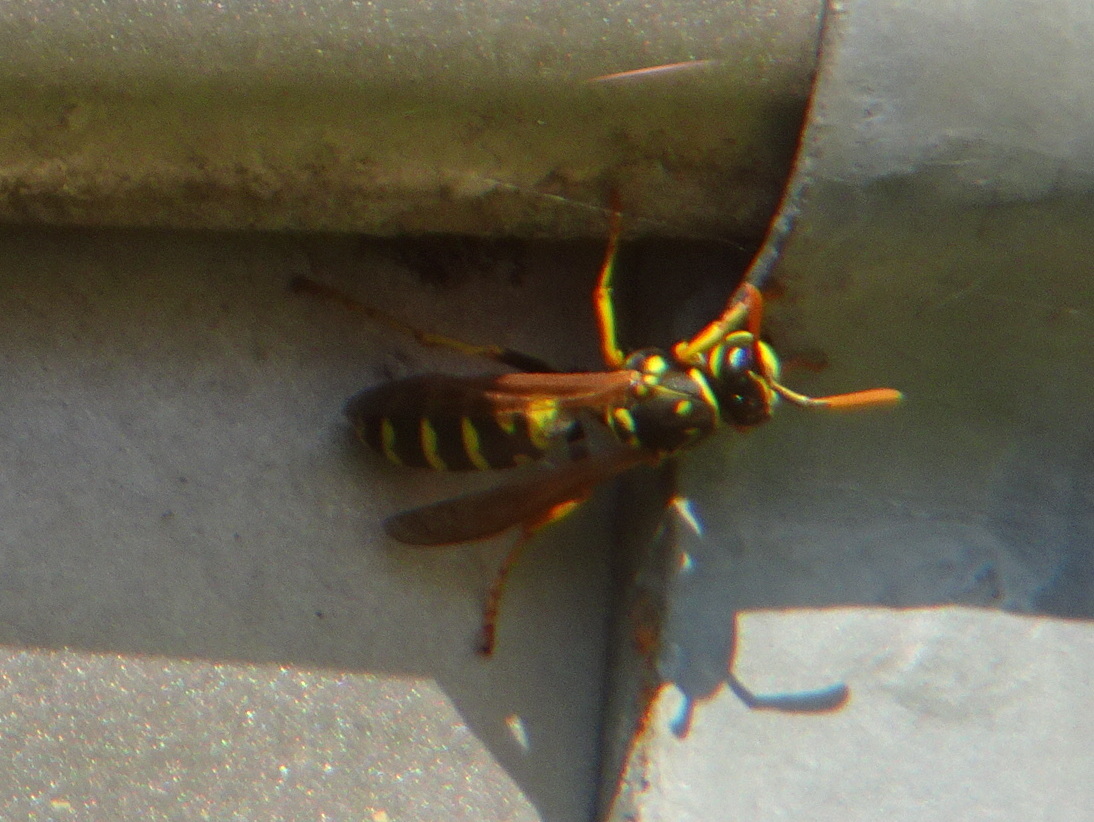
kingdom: Animalia
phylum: Arthropoda
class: Insecta
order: Hymenoptera
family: Eumenidae
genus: Polistes
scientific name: Polistes dominula
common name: Paper wasp
